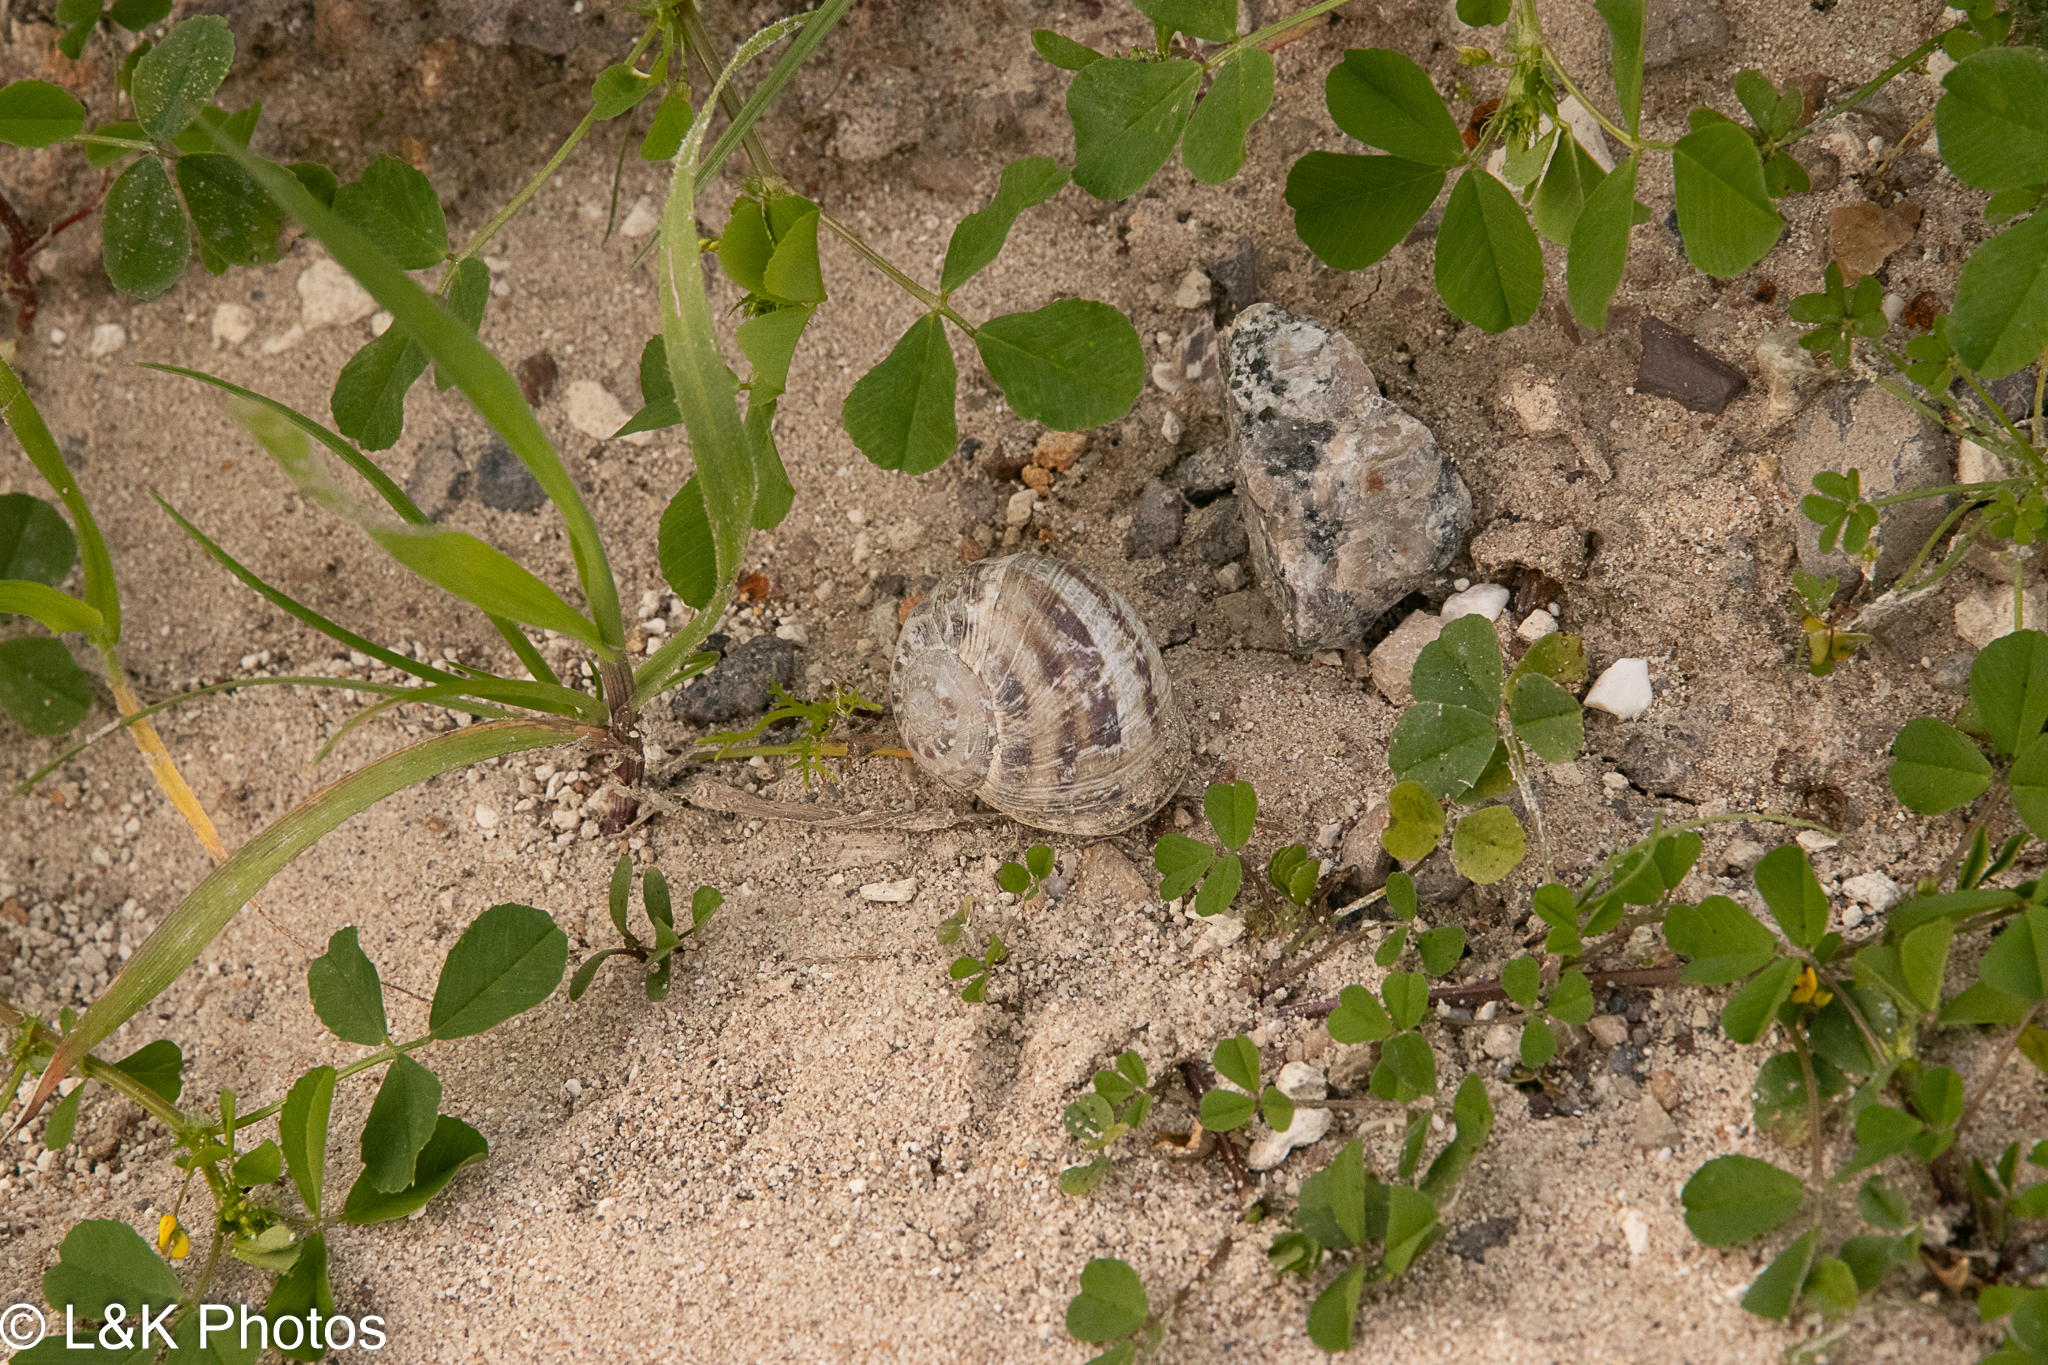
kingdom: Animalia
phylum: Mollusca
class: Gastropoda
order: Stylommatophora
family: Helicidae
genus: Cornu
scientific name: Cornu aspersum
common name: Brown garden snail
